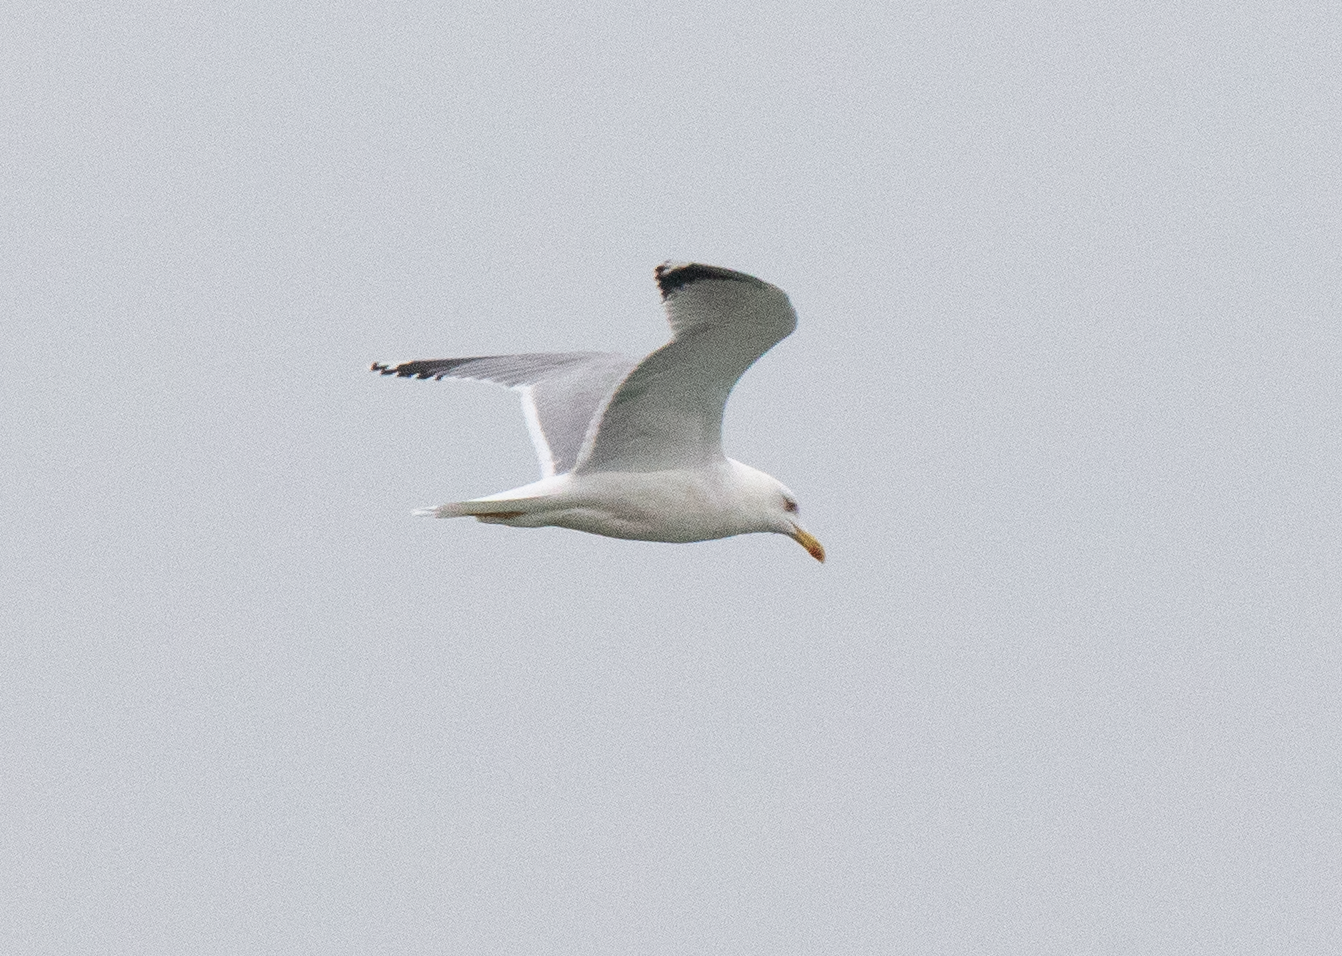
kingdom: Animalia
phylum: Chordata
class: Aves
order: Charadriiformes
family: Laridae
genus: Larus
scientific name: Larus michahellis
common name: Yellow-legged gull
